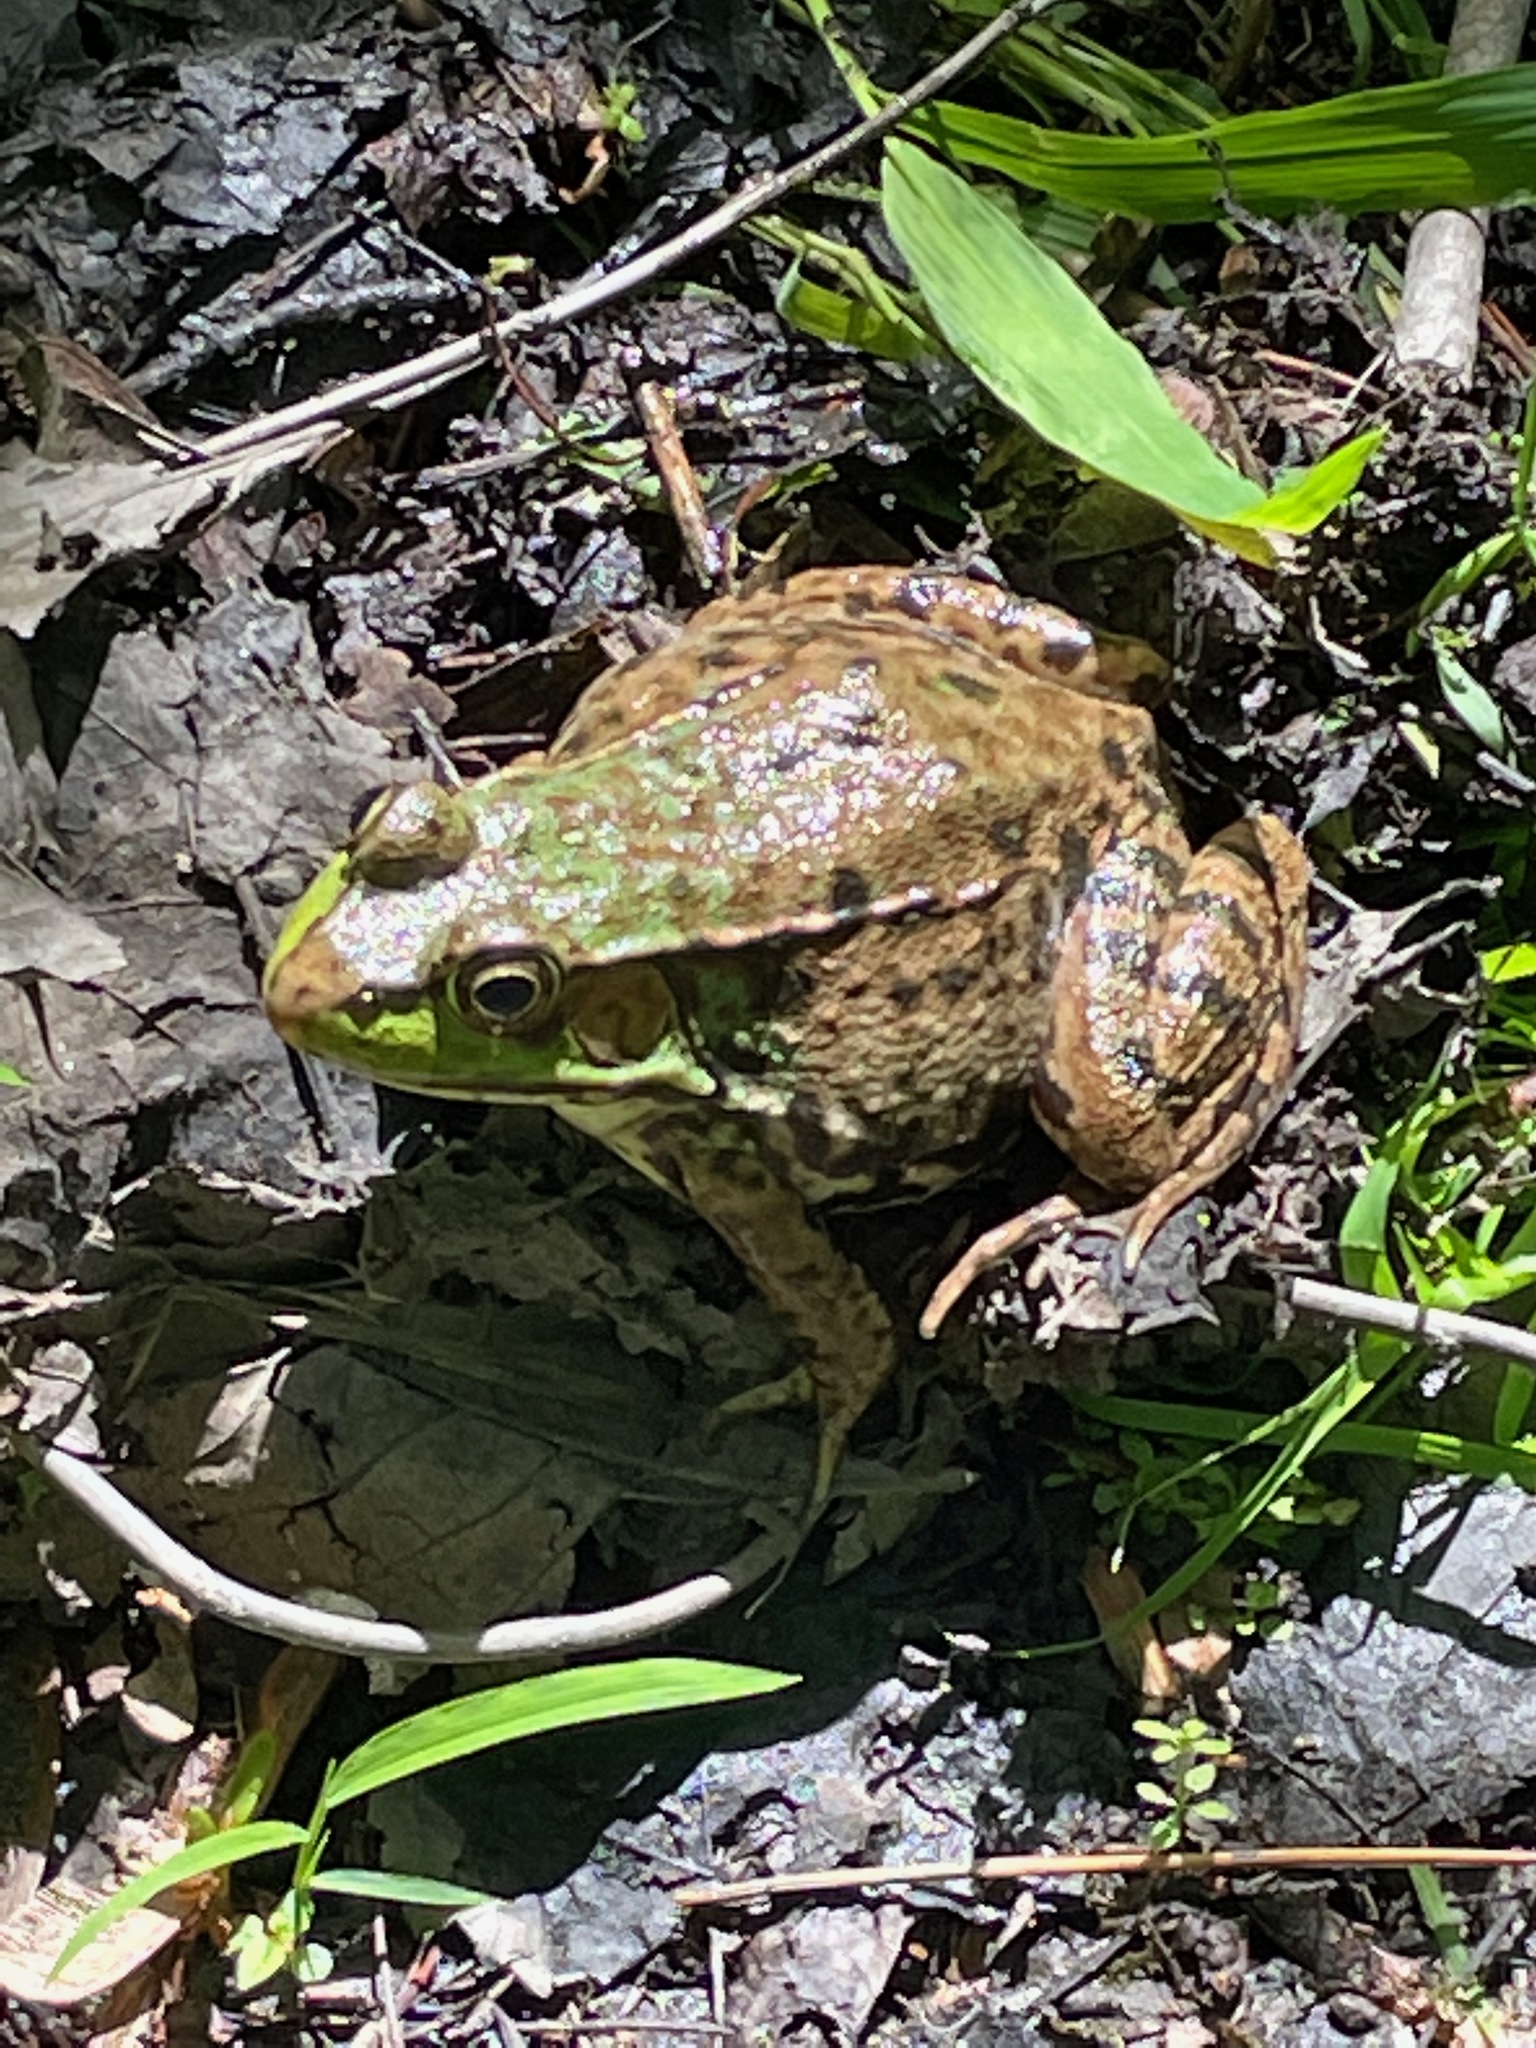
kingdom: Animalia
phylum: Chordata
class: Amphibia
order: Anura
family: Ranidae
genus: Lithobates
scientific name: Lithobates clamitans
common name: Green frog
